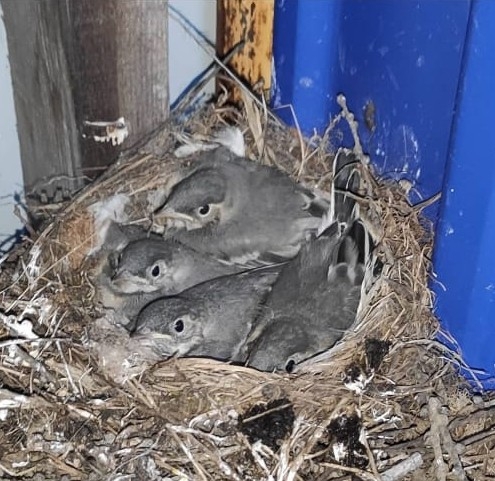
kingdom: Animalia
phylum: Chordata
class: Aves
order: Passeriformes
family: Motacillidae
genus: Motacilla
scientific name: Motacilla alba
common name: White wagtail
